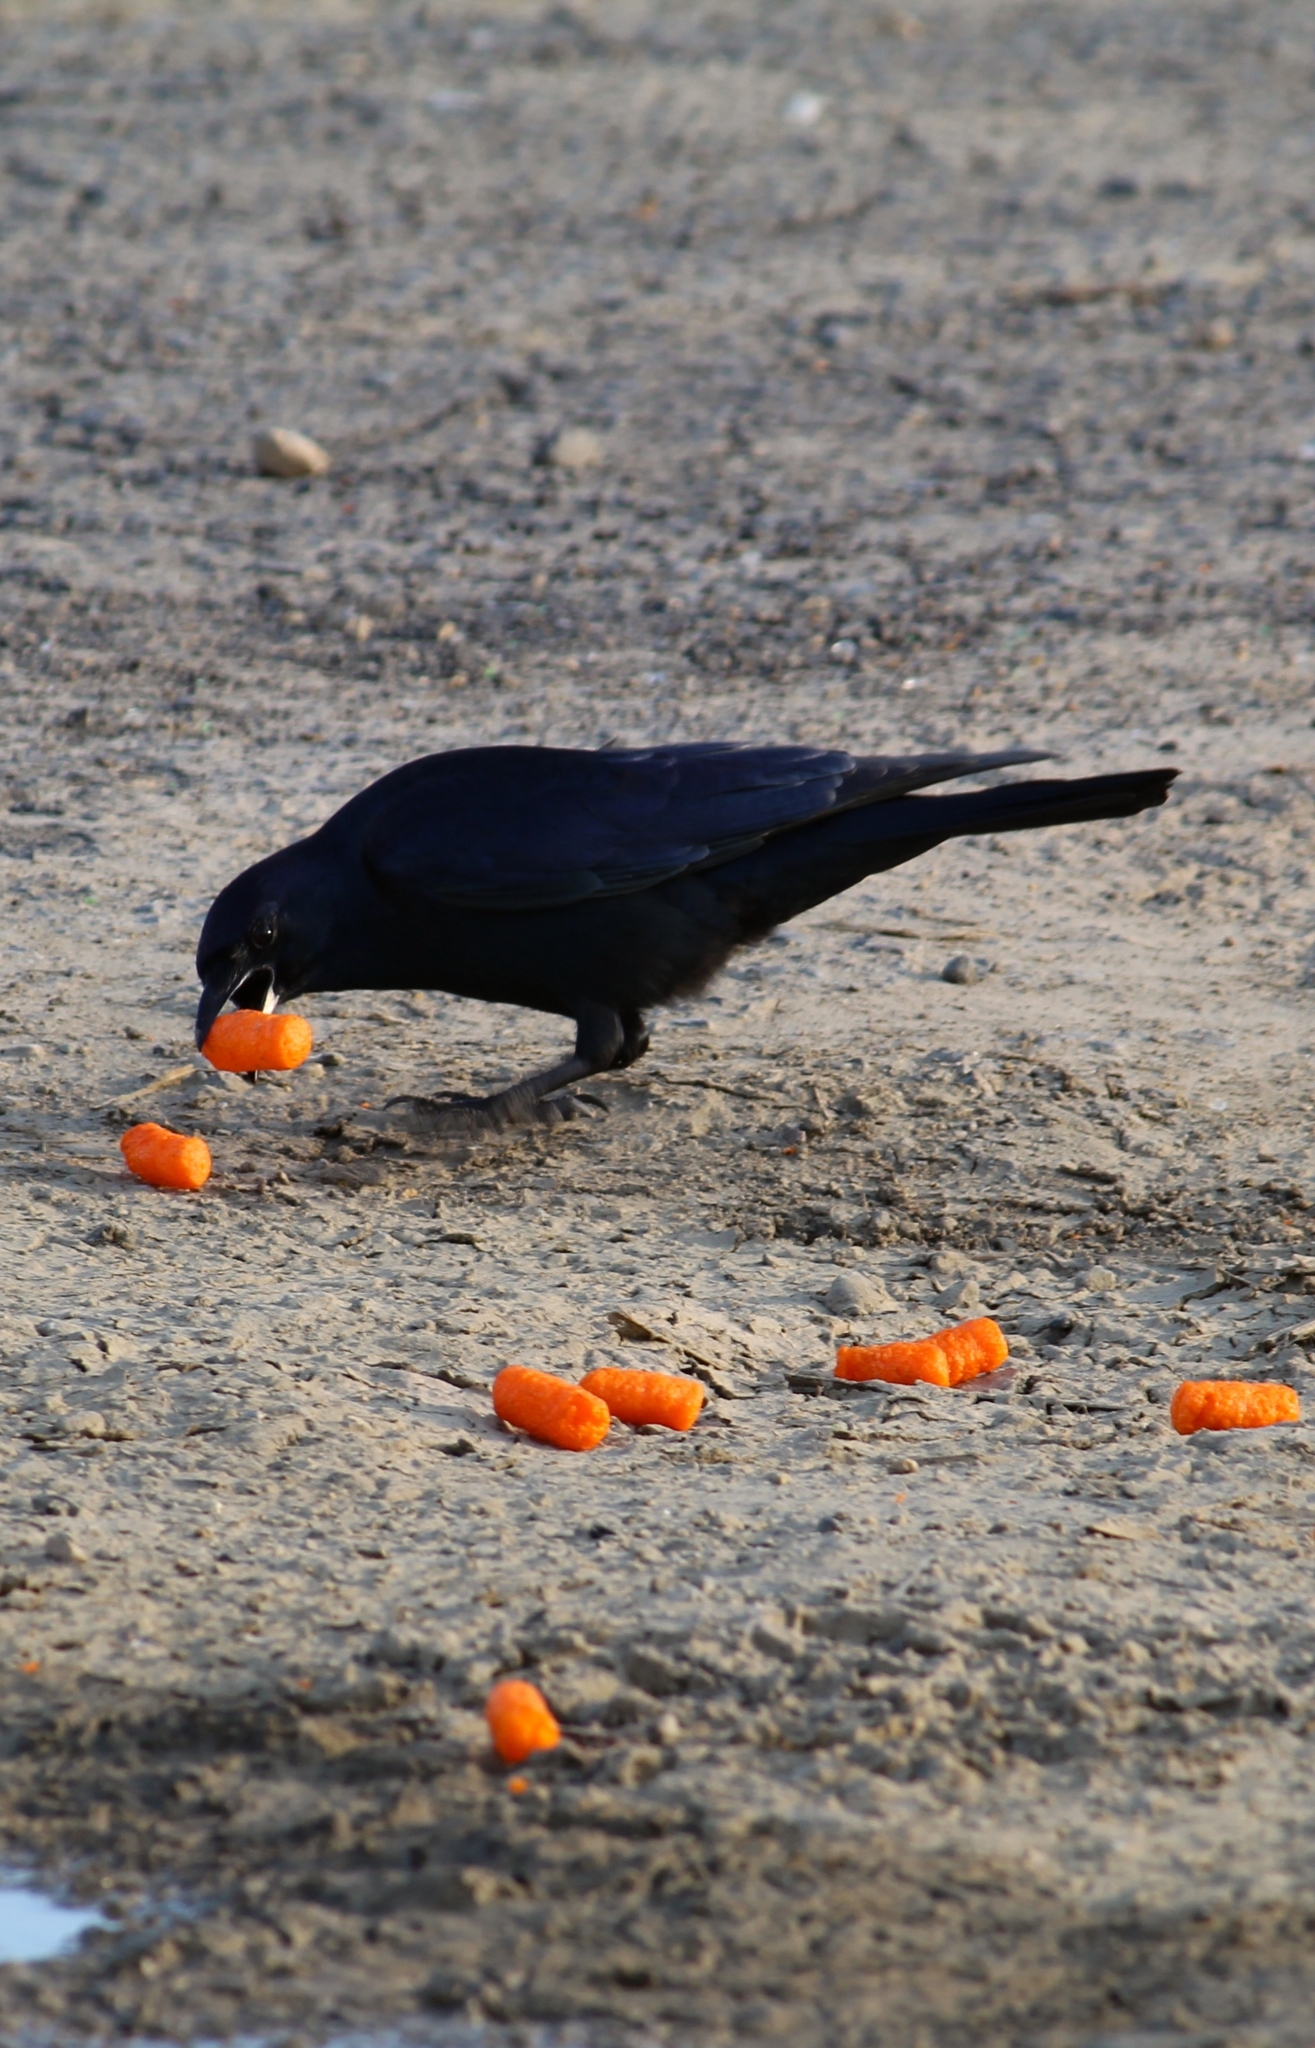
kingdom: Animalia
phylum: Chordata
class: Aves
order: Passeriformes
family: Corvidae
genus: Corvus
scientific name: Corvus imparatus
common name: Tamaulipas crow
